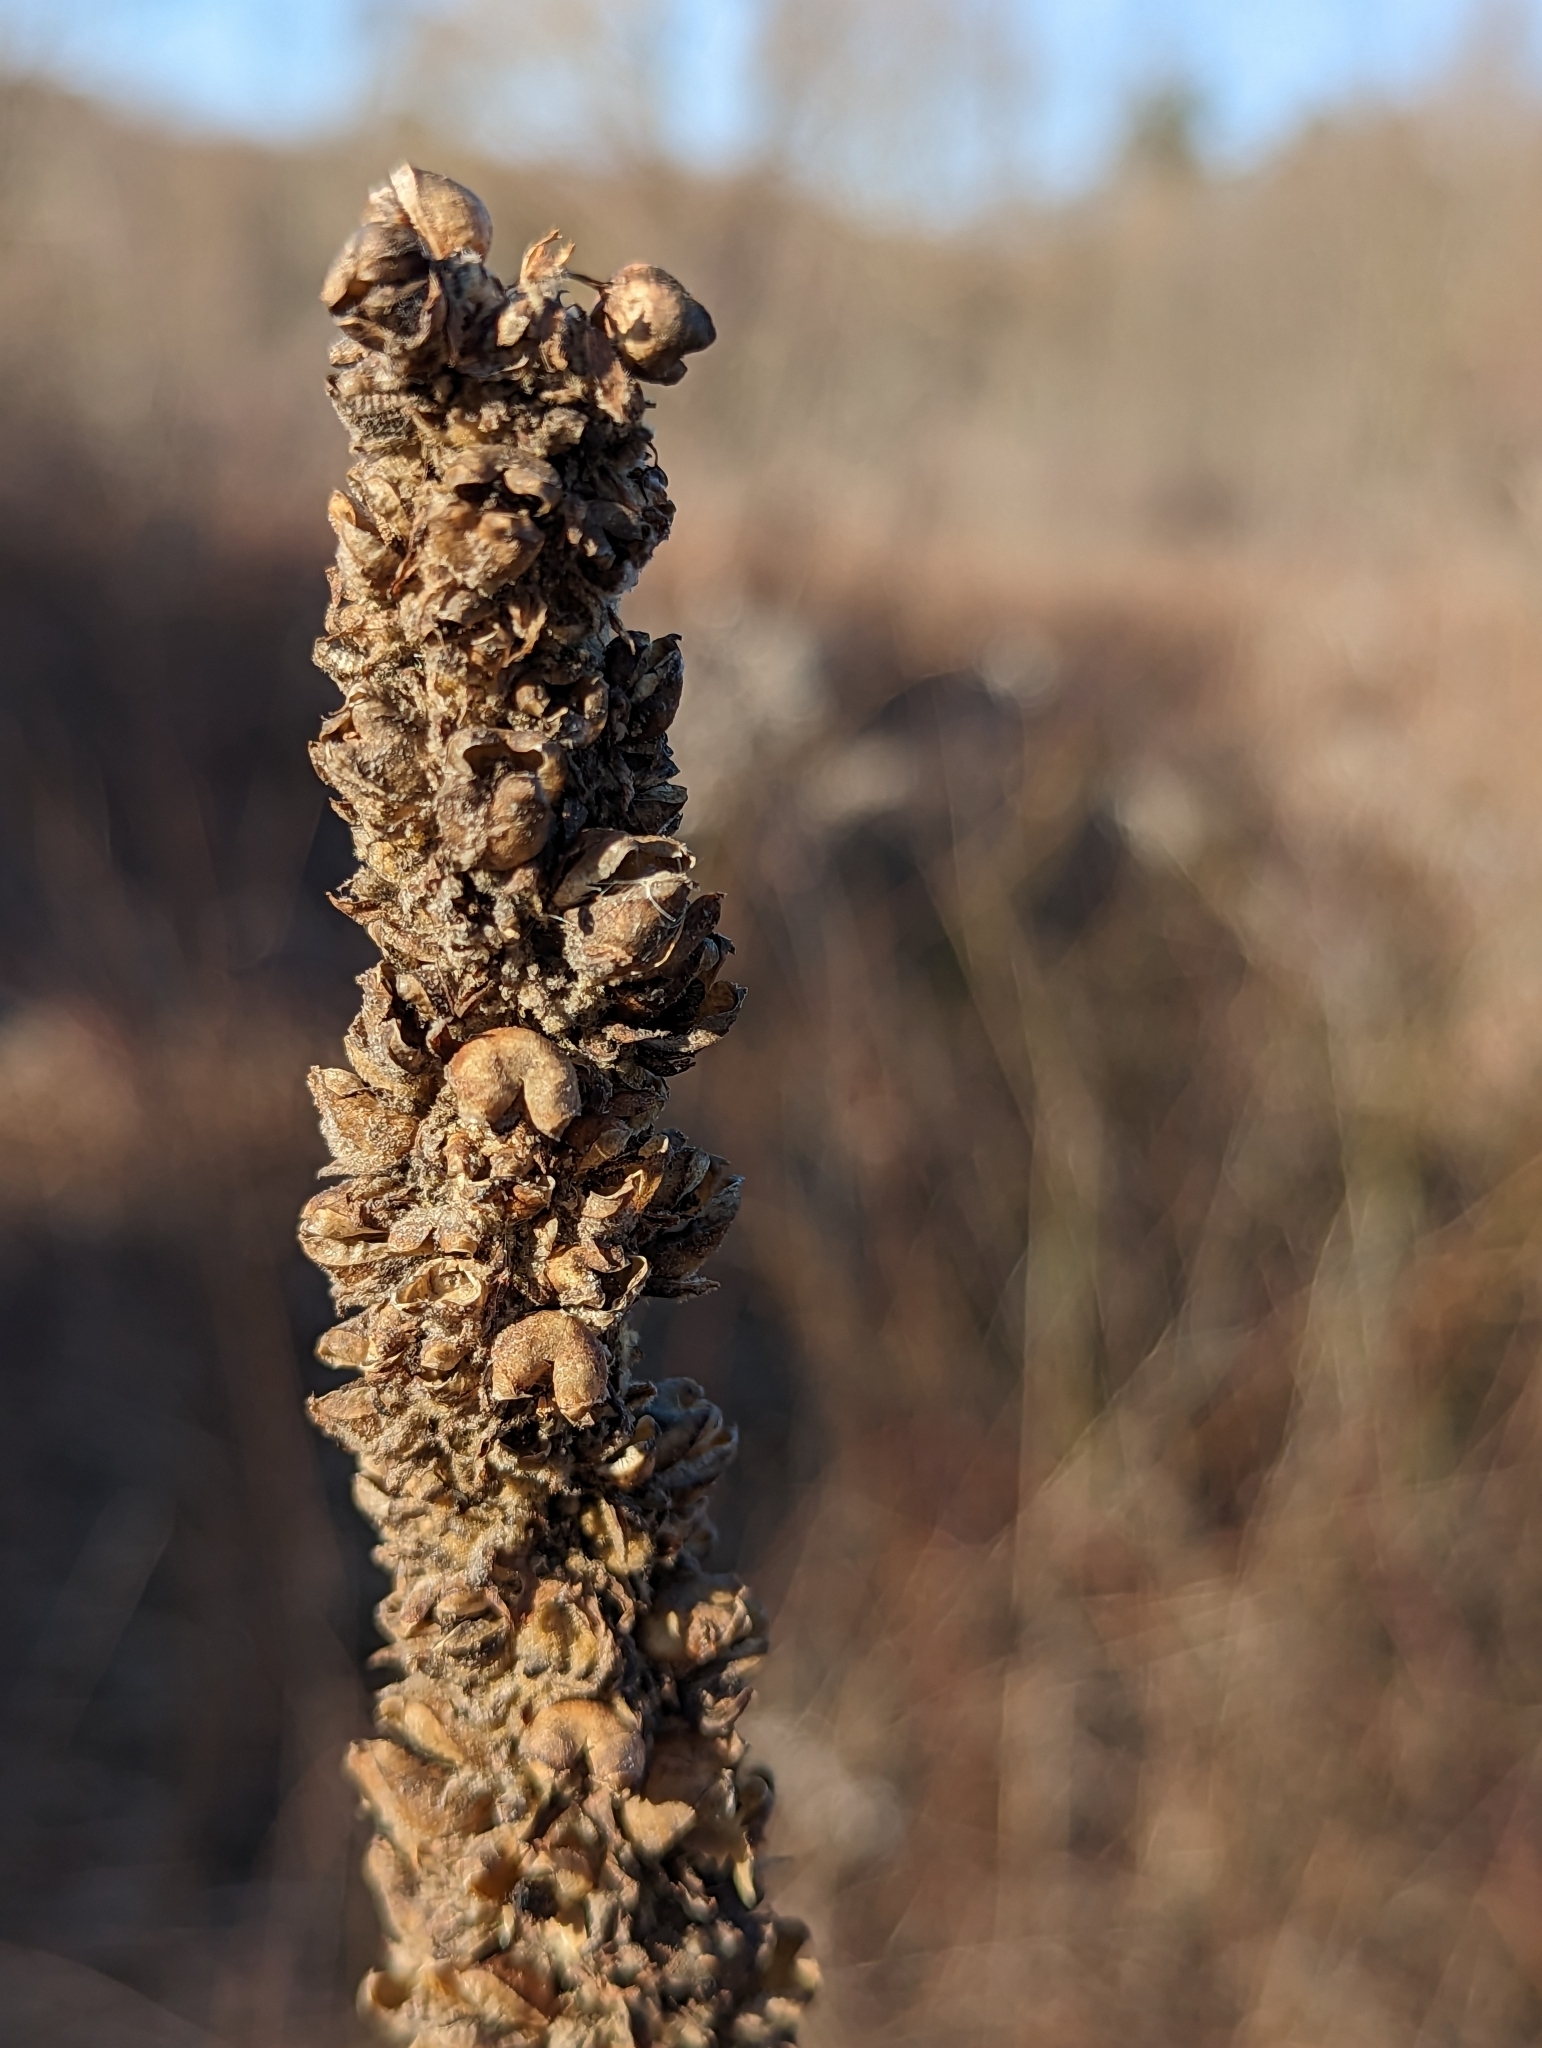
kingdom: Plantae
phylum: Tracheophyta
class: Magnoliopsida
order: Lamiales
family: Scrophulariaceae
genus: Verbascum
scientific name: Verbascum thapsus
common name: Common mullein
